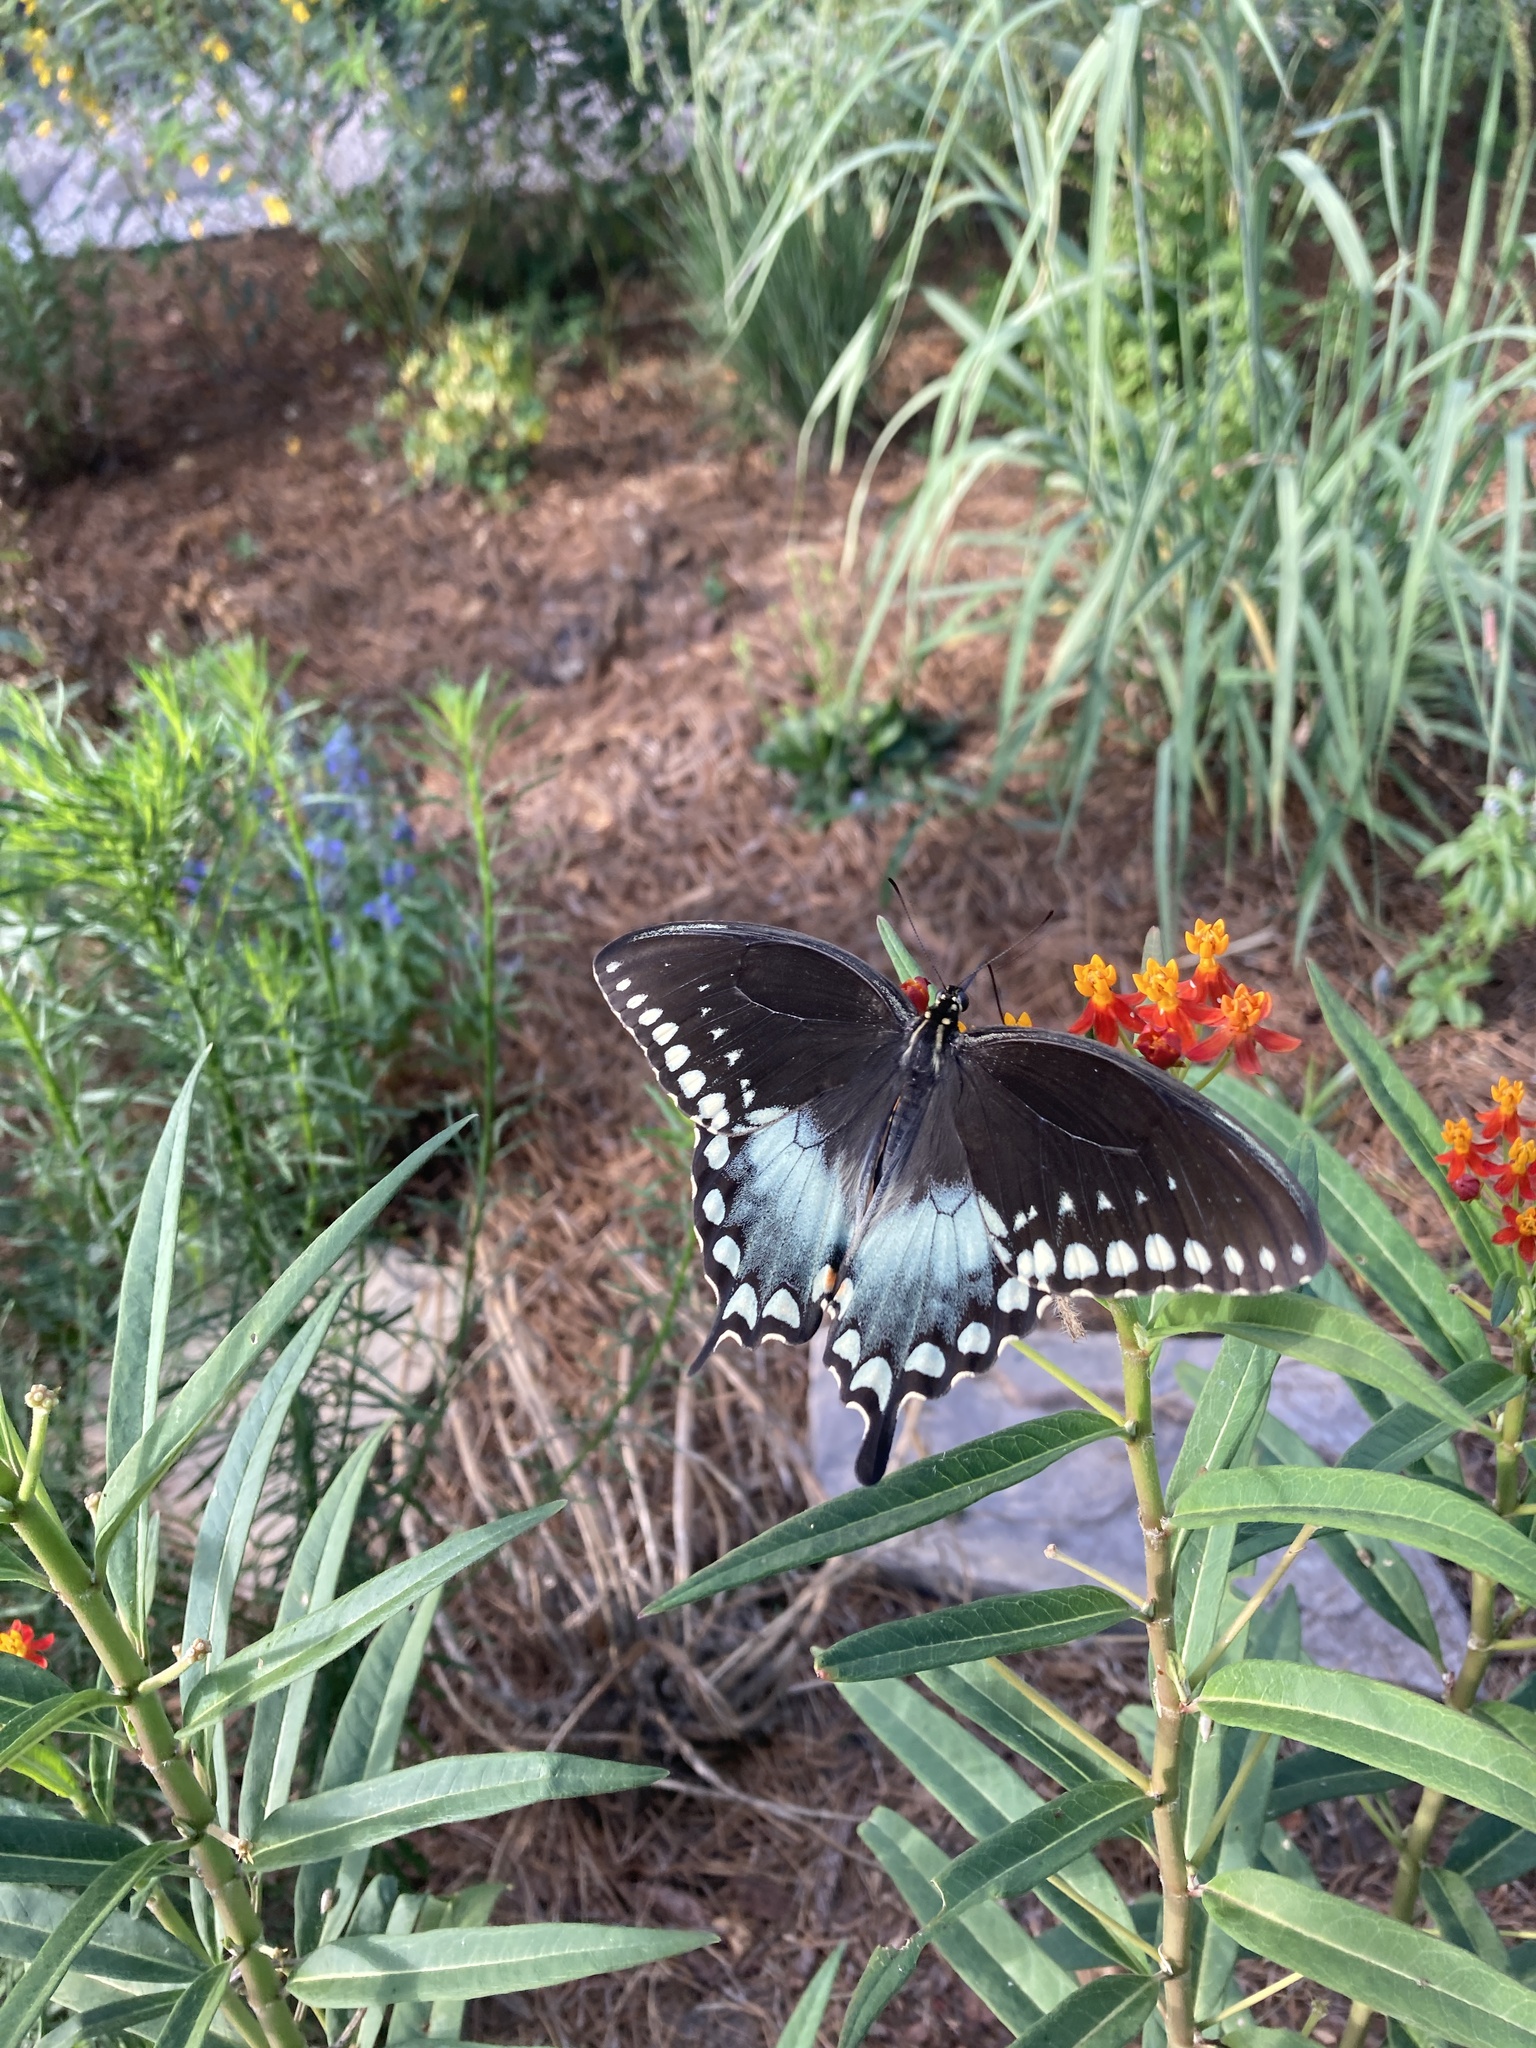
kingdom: Animalia
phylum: Arthropoda
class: Insecta
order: Lepidoptera
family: Papilionidae
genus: Papilio
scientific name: Papilio troilus
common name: Spicebush swallowtail
